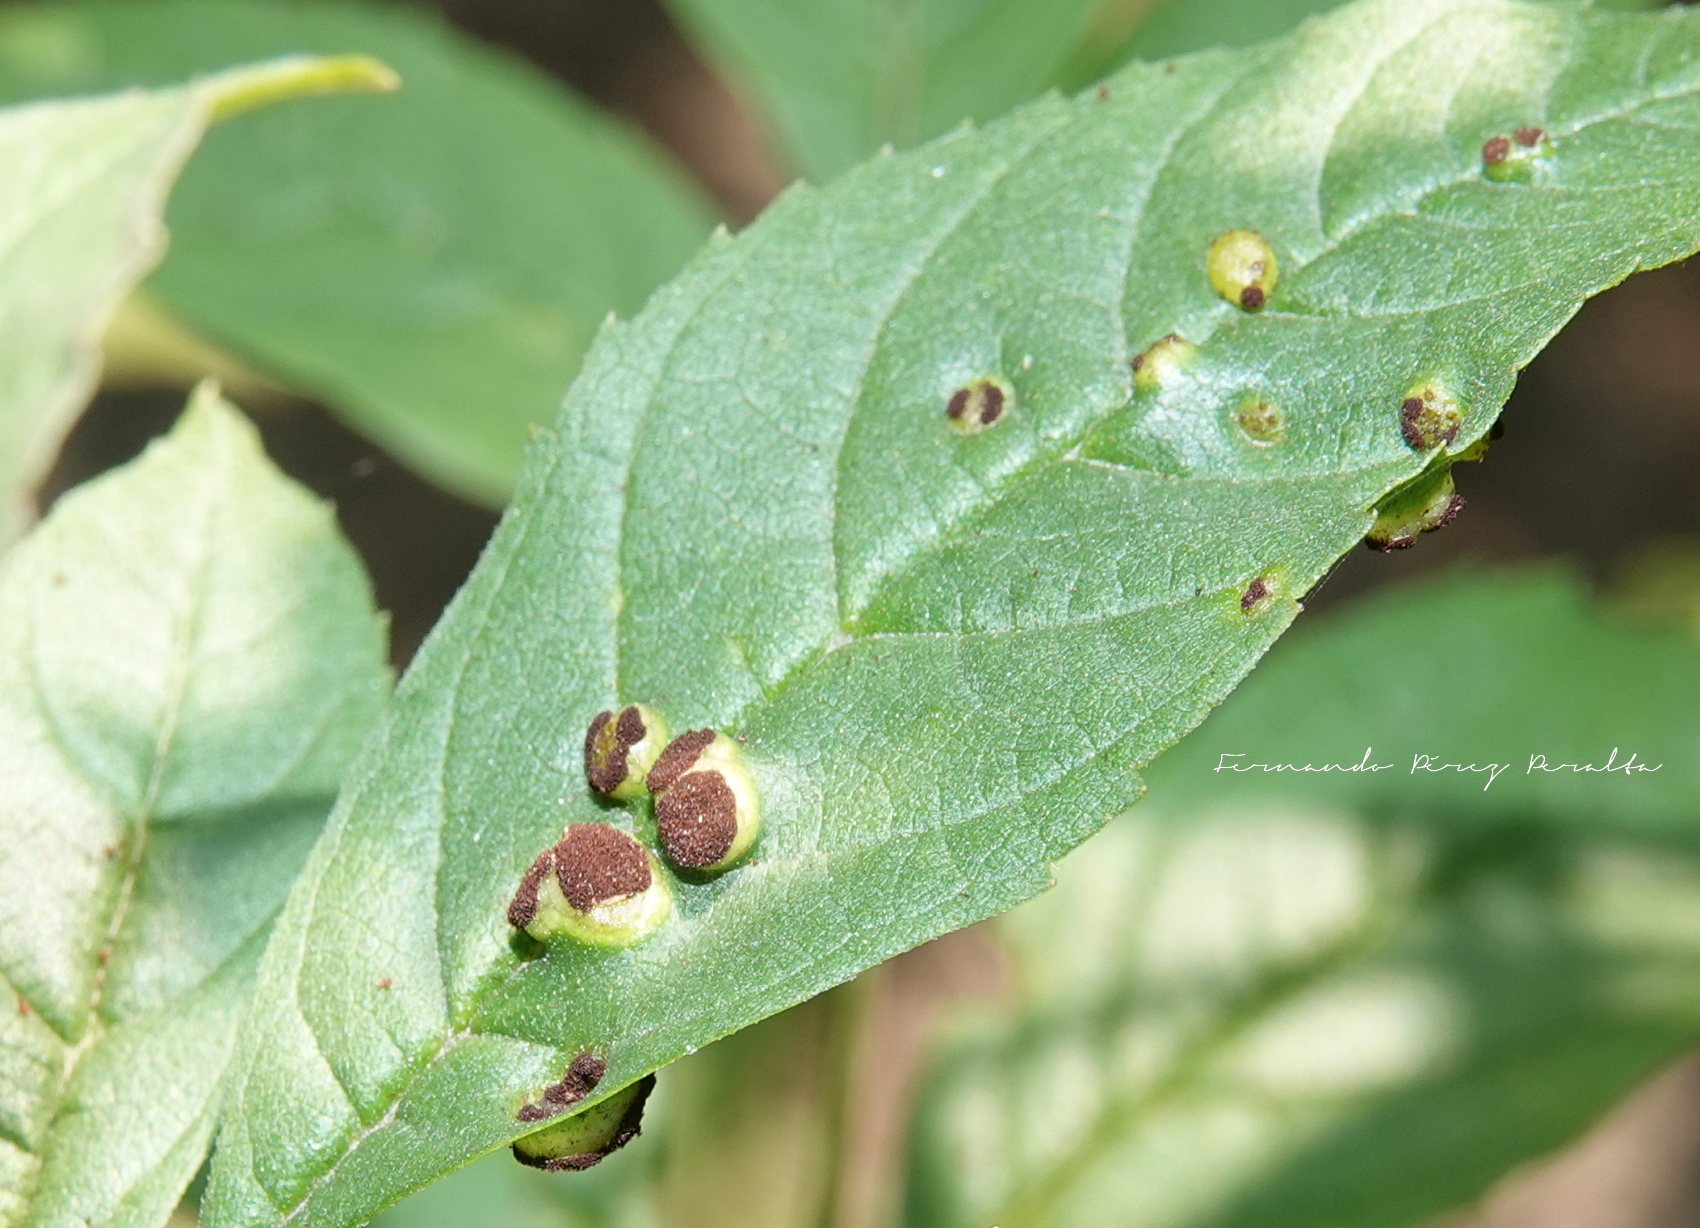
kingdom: Fungi
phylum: Basidiomycota
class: Pucciniomycetes
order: Pucciniales
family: Uropyxidaceae
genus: Prospodium
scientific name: Prospodium transformans
